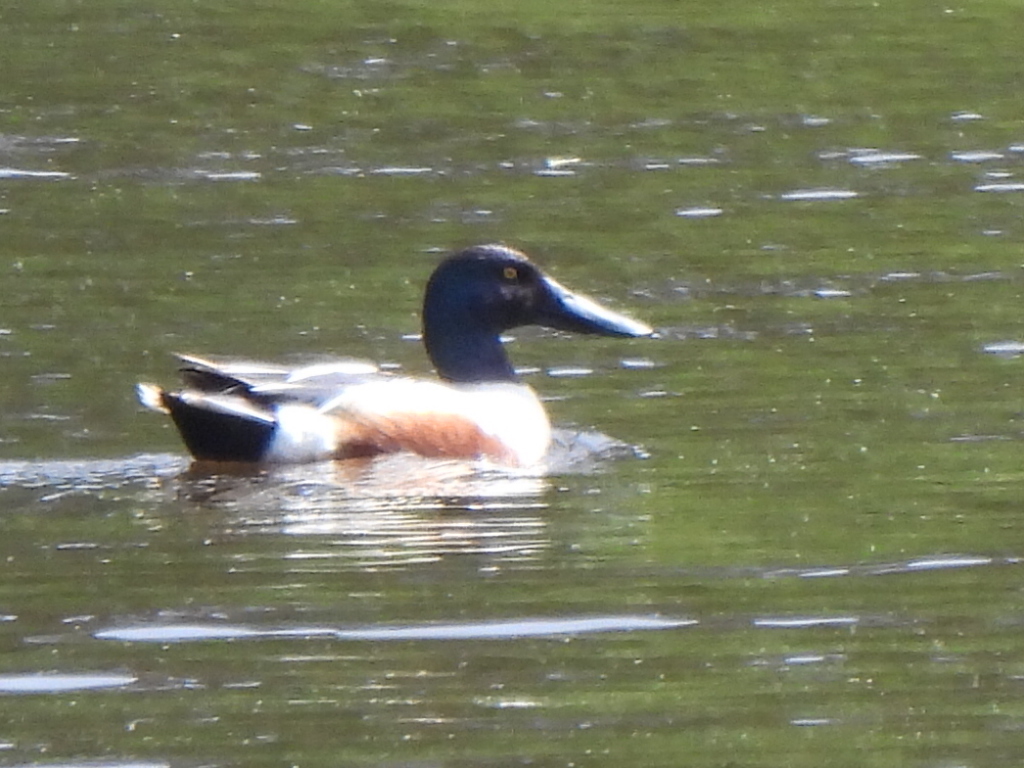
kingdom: Animalia
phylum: Chordata
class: Aves
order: Anseriformes
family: Anatidae
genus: Spatula
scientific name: Spatula clypeata
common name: Northern shoveler
